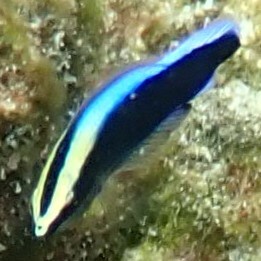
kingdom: Animalia
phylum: Chordata
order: Perciformes
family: Labridae
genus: Labroides
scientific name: Labroides phthirophagus
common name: Cleaner wrasse
